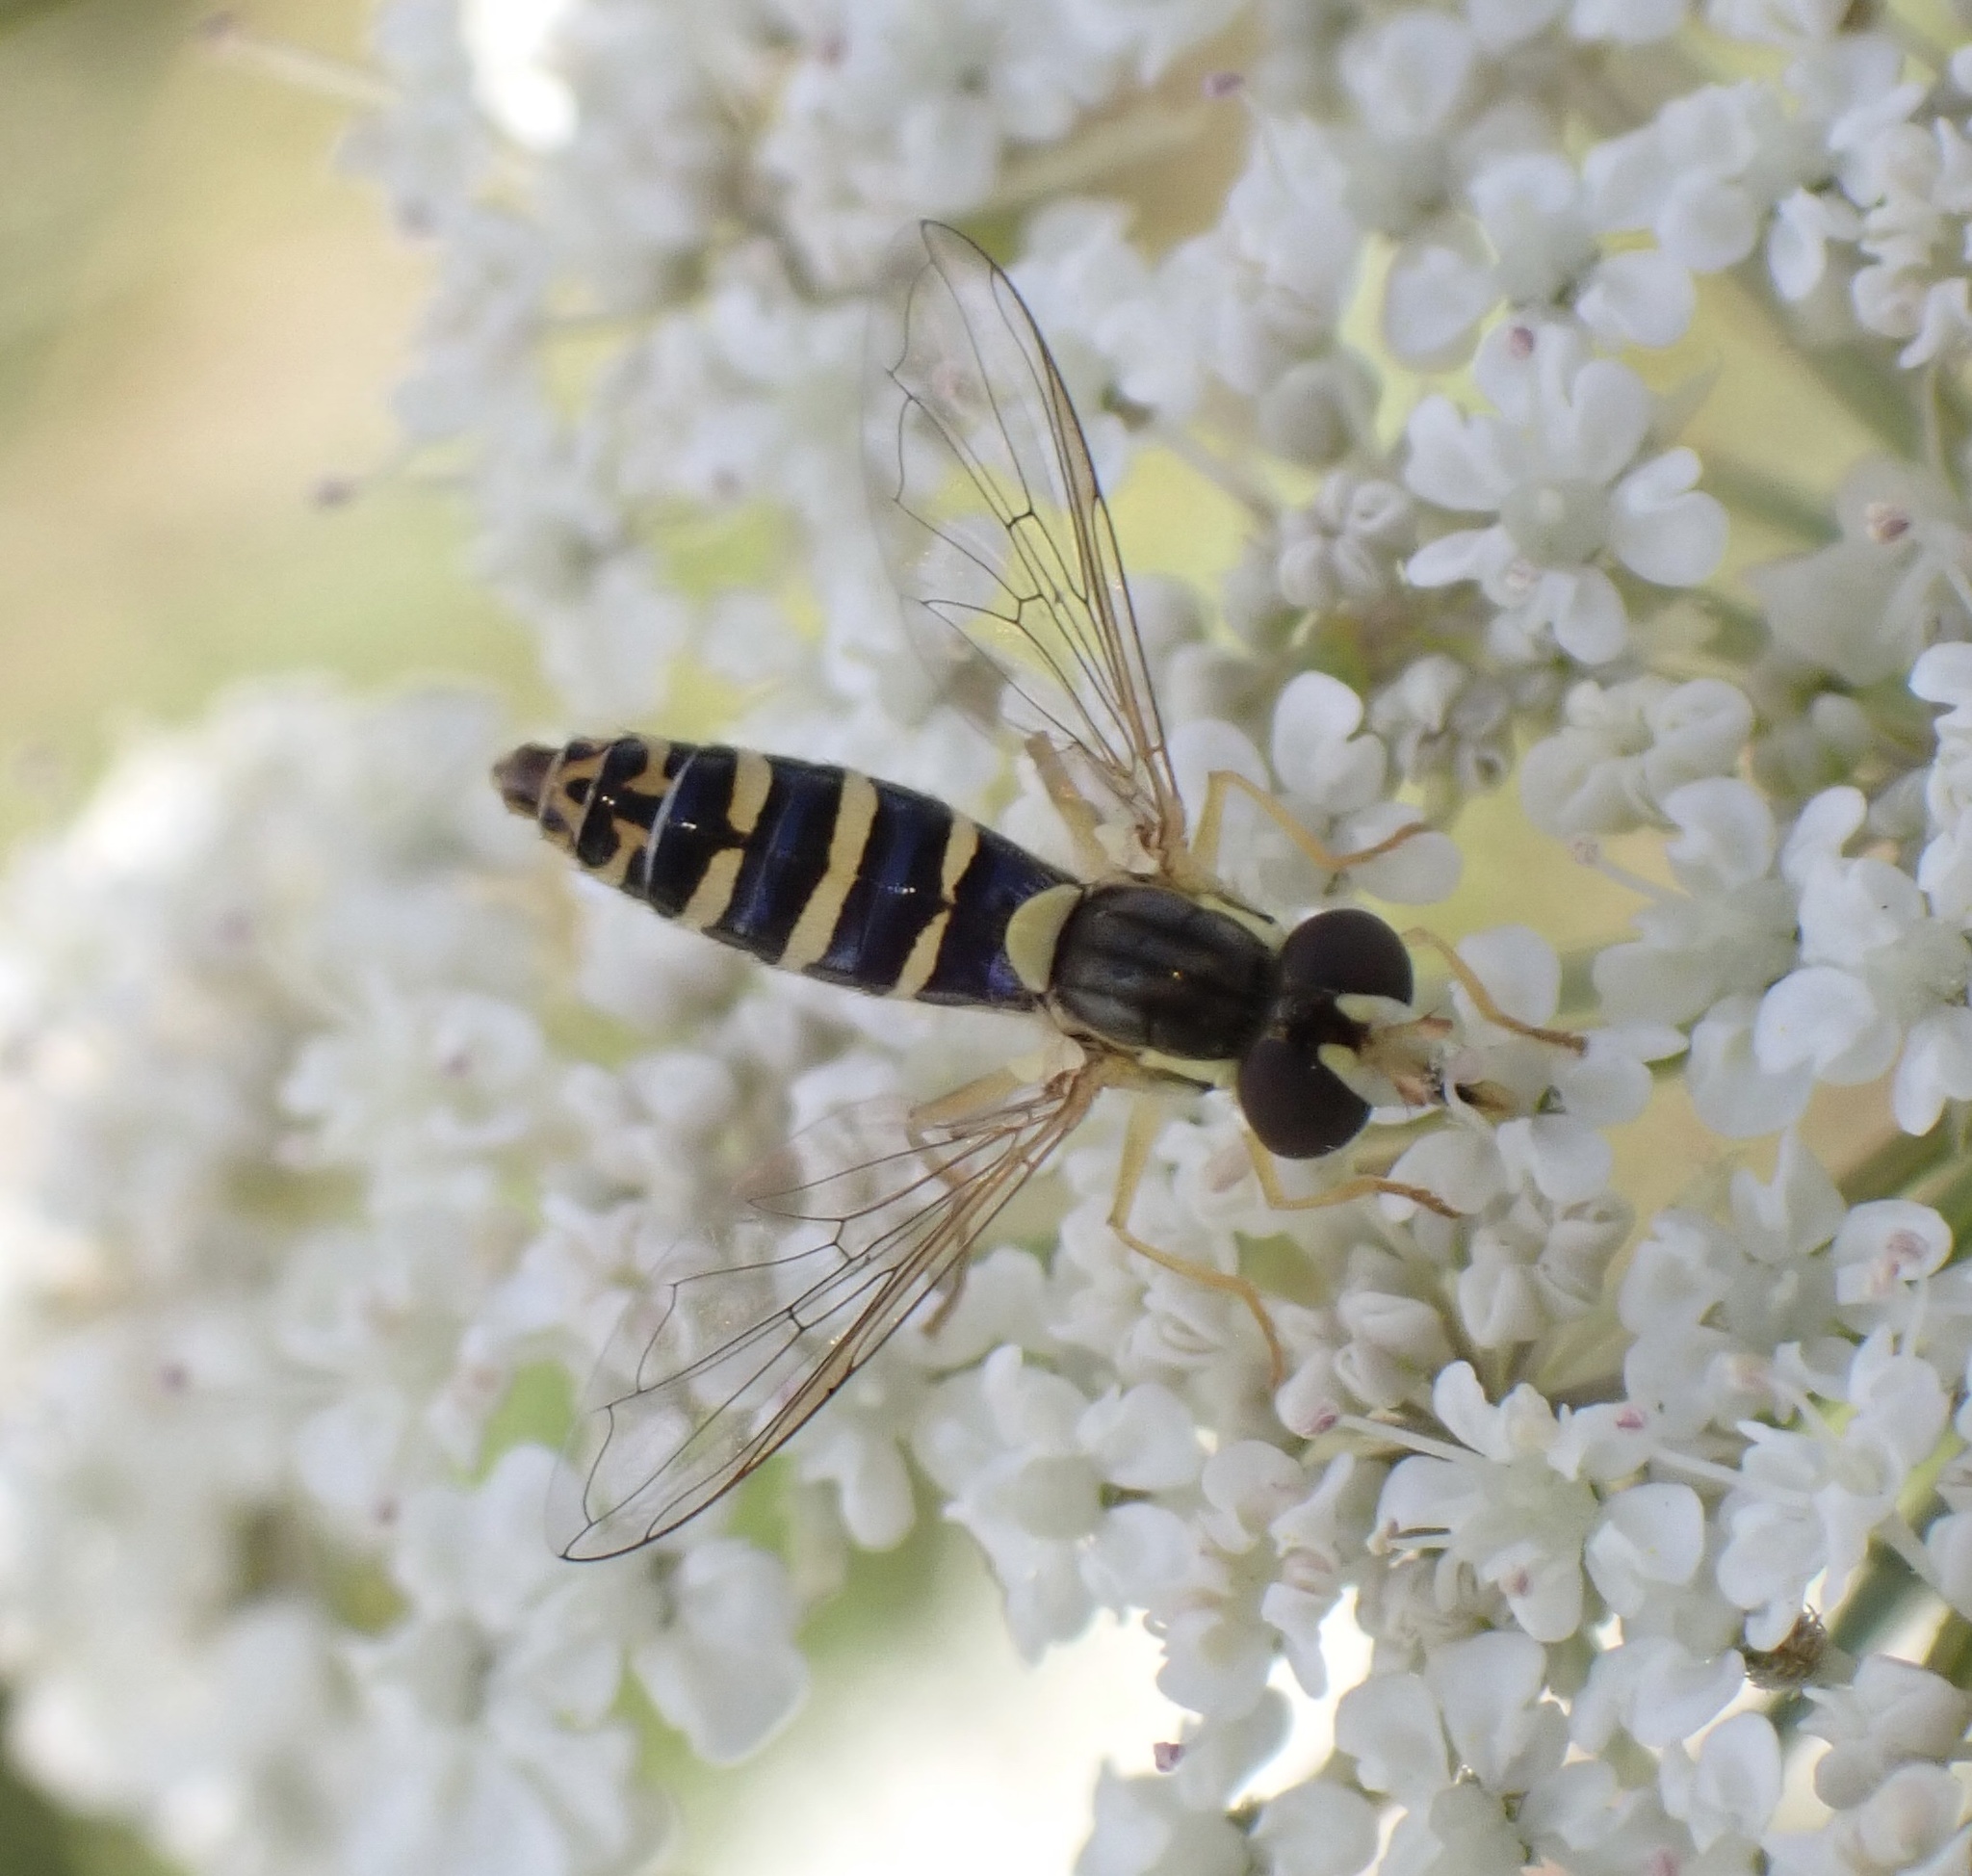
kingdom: Animalia
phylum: Arthropoda
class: Insecta
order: Diptera
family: Syrphidae
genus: Sphaerophoria
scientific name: Sphaerophoria
